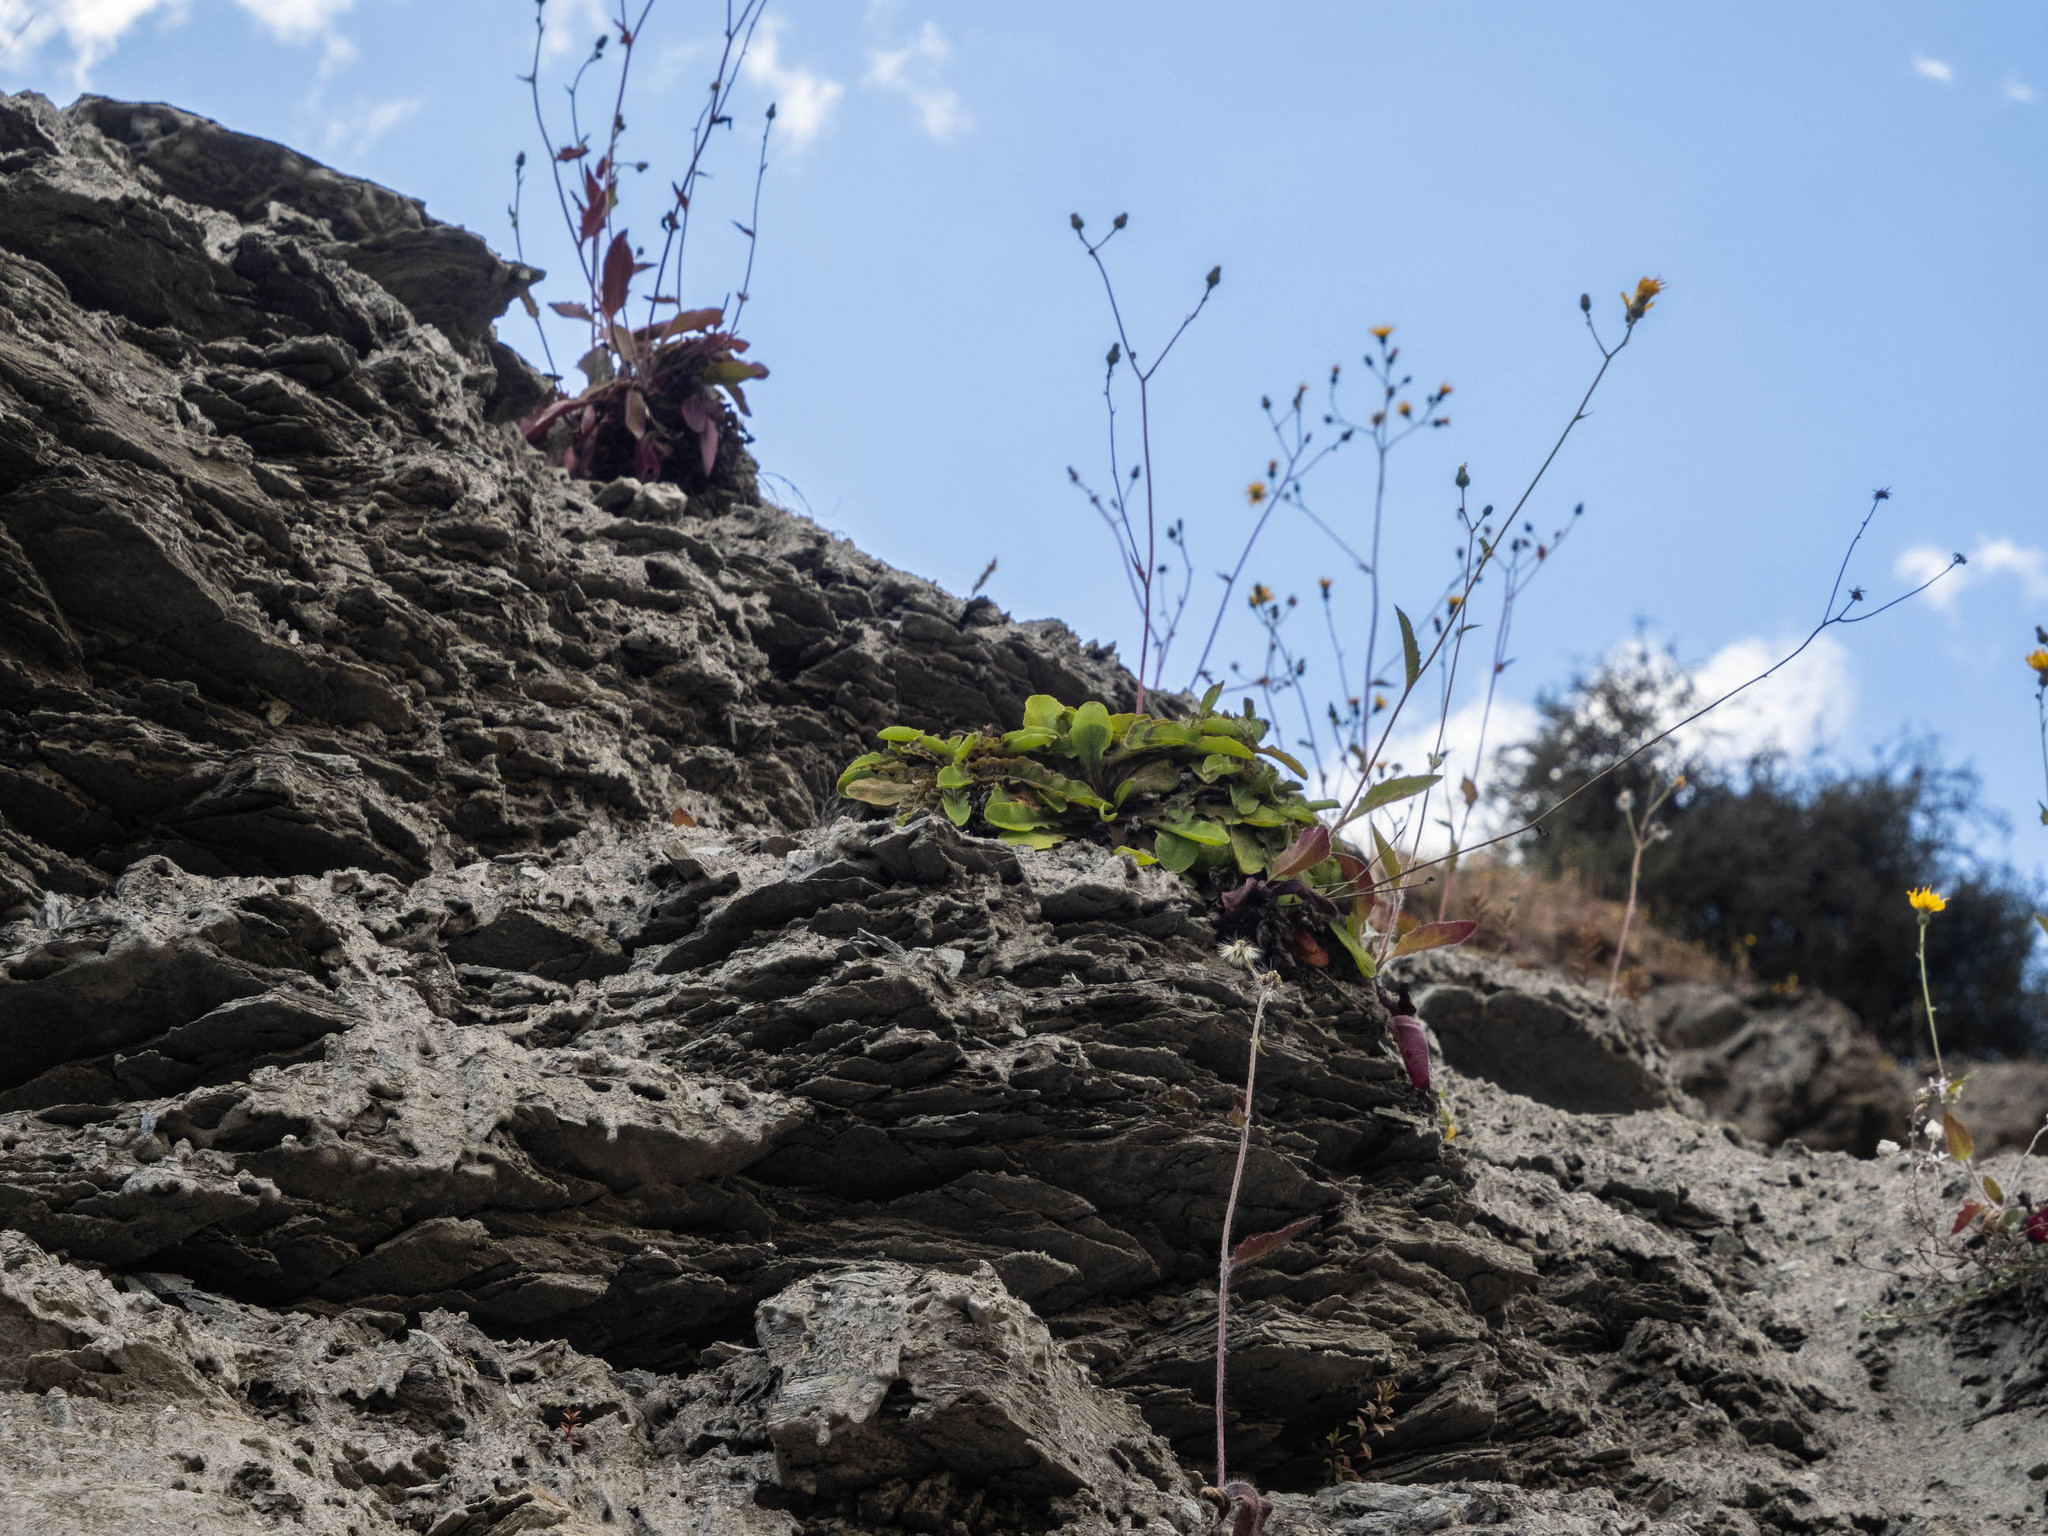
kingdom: Plantae
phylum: Tracheophyta
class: Magnoliopsida
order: Asterales
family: Asteraceae
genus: Sonchus
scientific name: Sonchus novae-zelandiae
